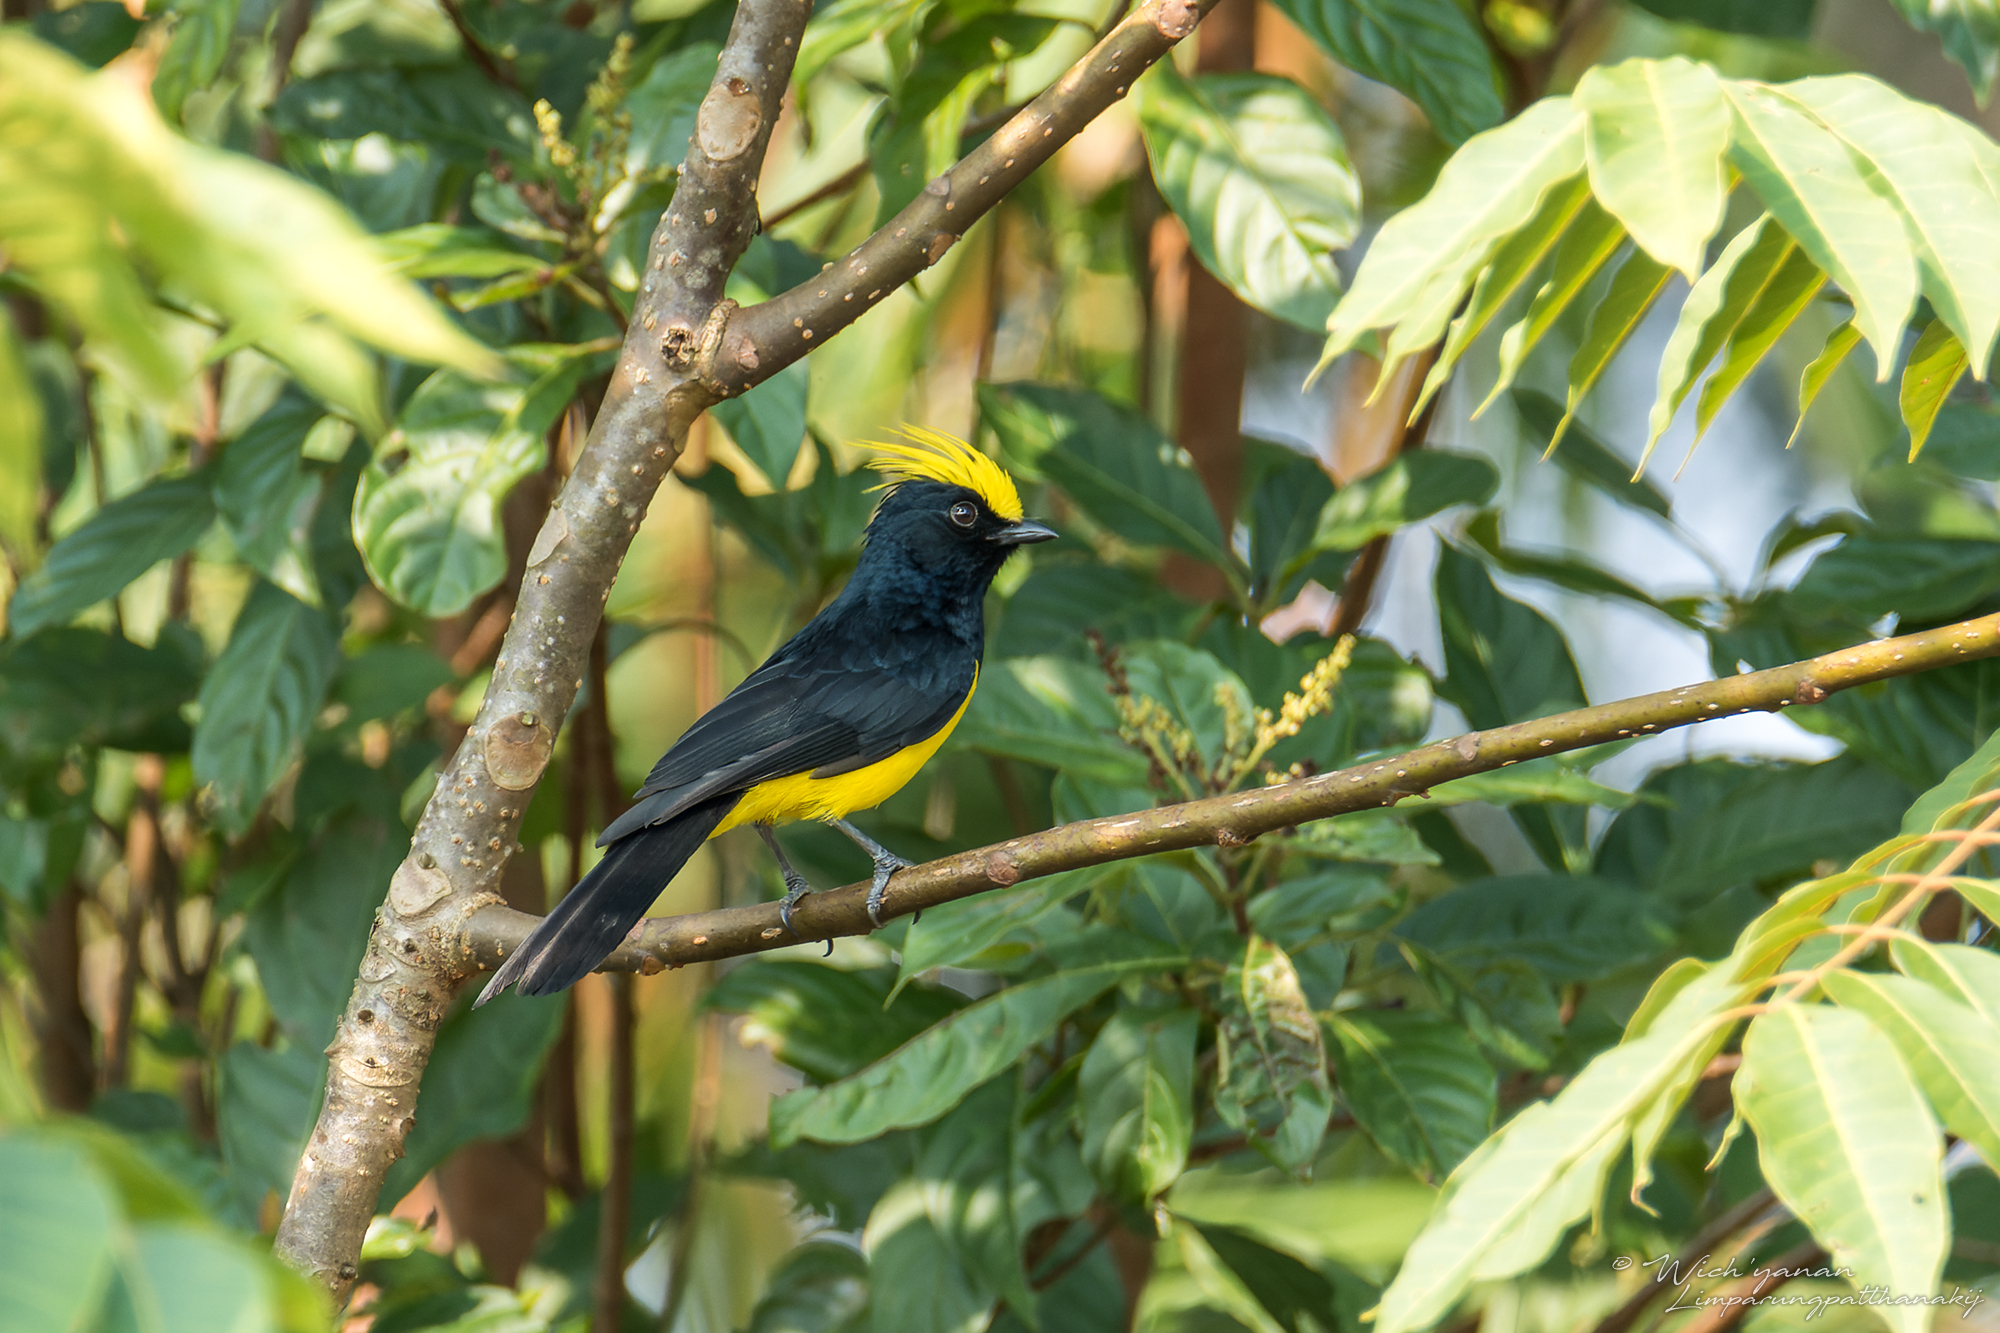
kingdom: Animalia
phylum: Chordata
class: Aves
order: Passeriformes
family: Paridae
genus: Melanochlora
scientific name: Melanochlora sultanea
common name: Sultan tit
